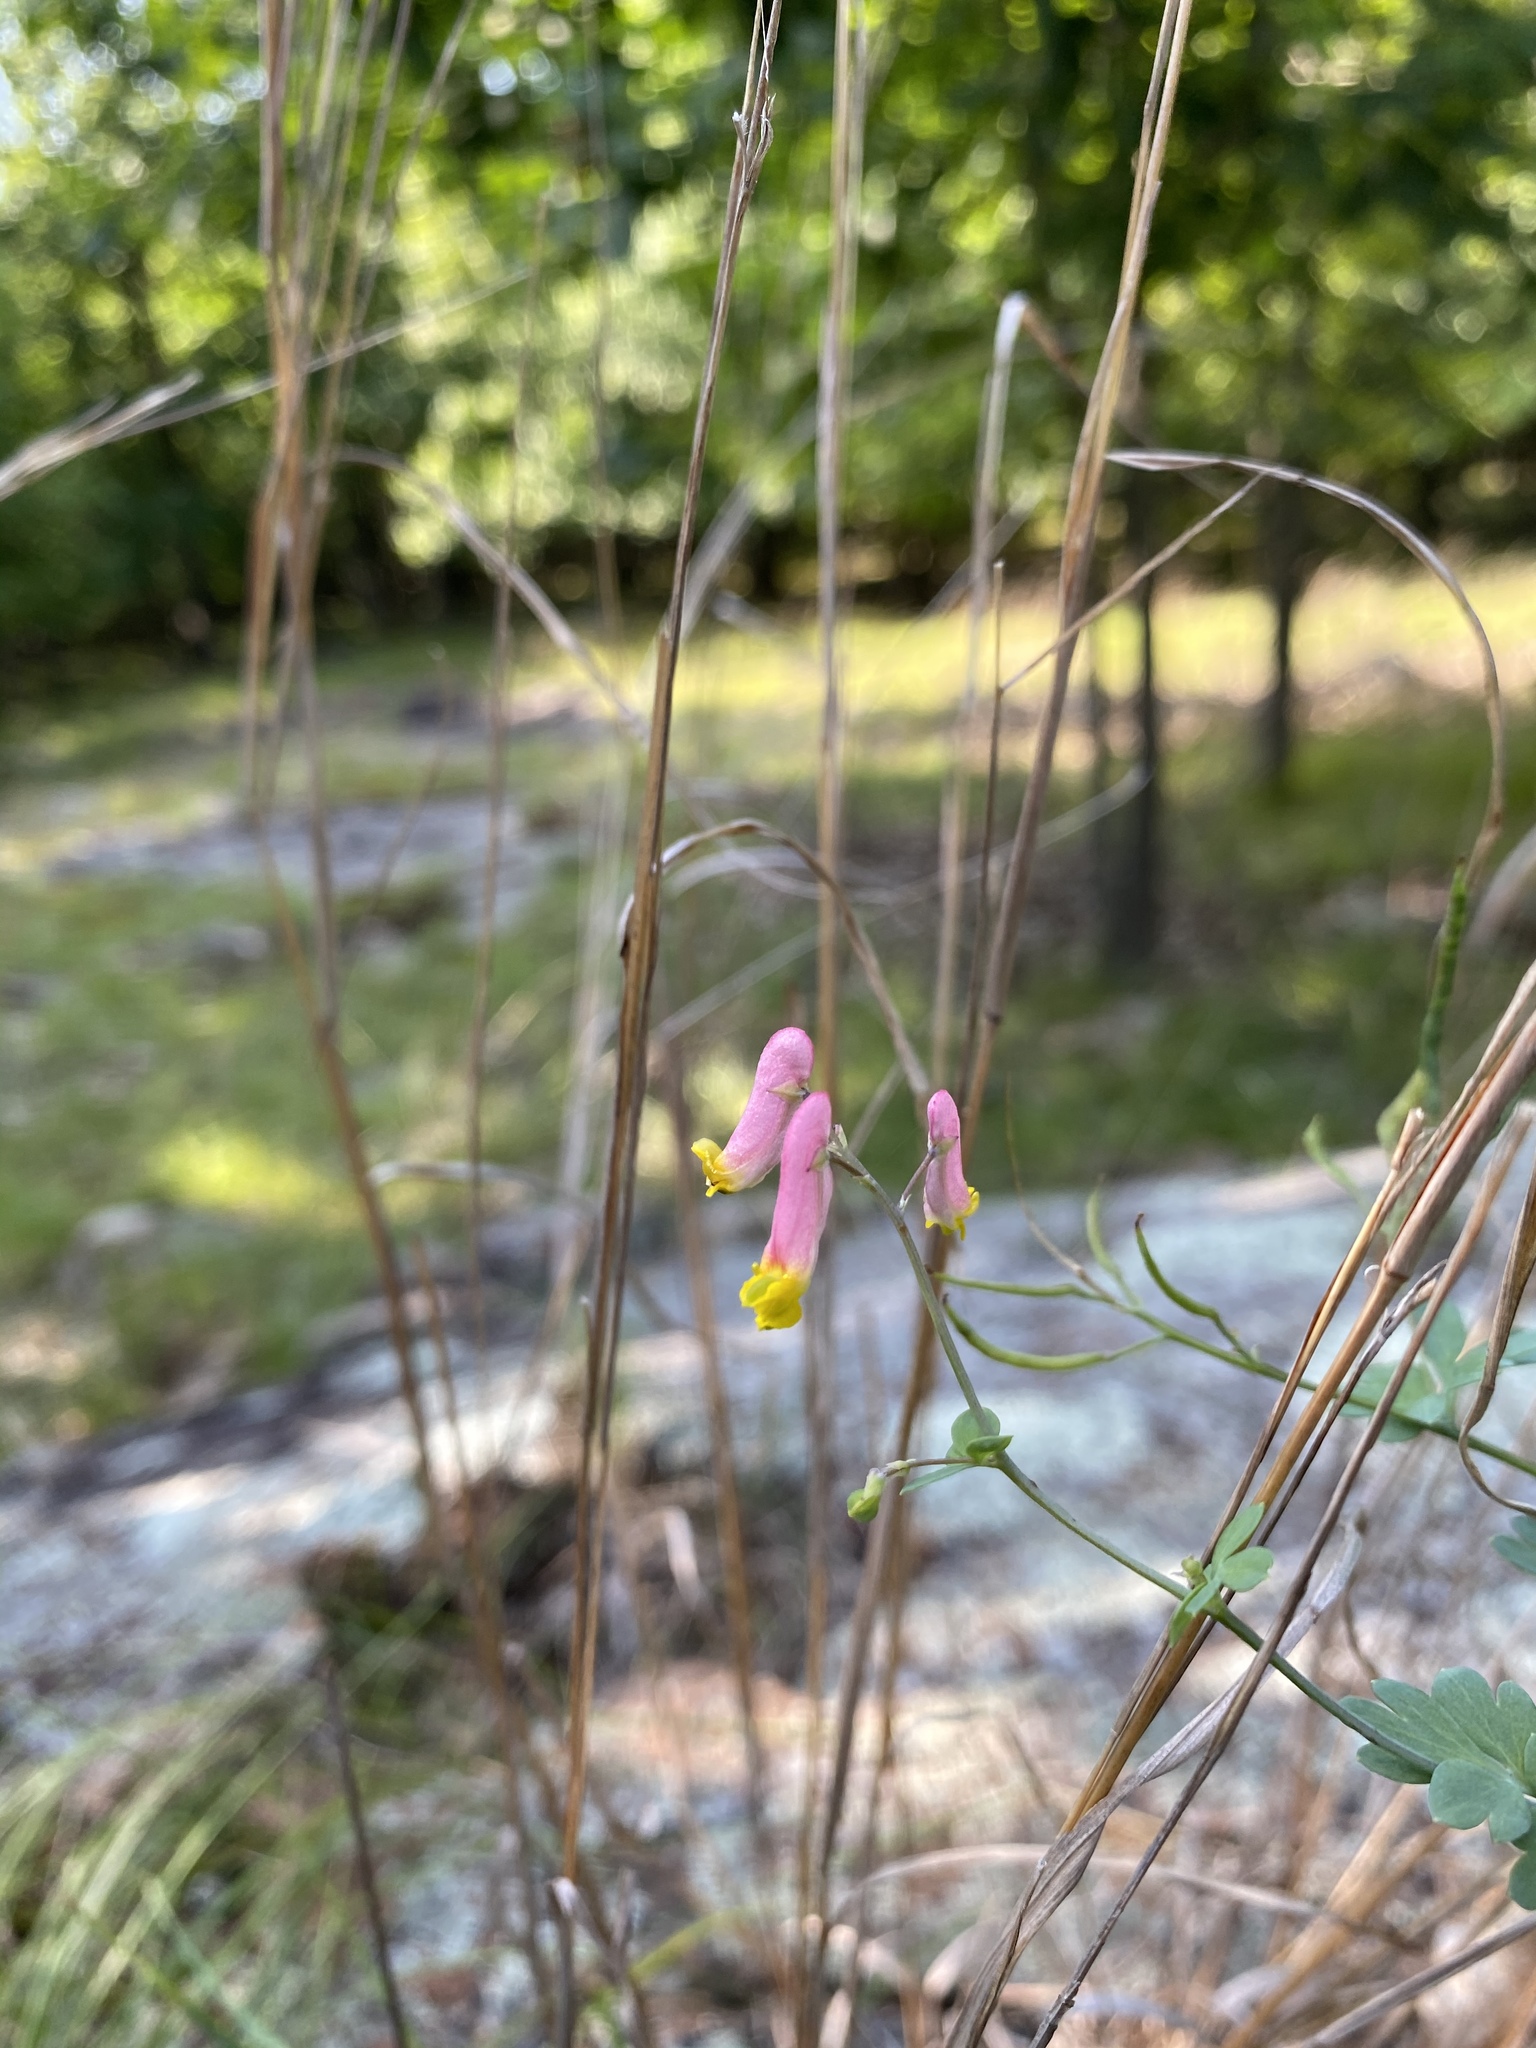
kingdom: Plantae
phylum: Tracheophyta
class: Magnoliopsida
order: Ranunculales
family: Papaveraceae
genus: Capnoides
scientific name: Capnoides sempervirens
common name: Rock harlequin
